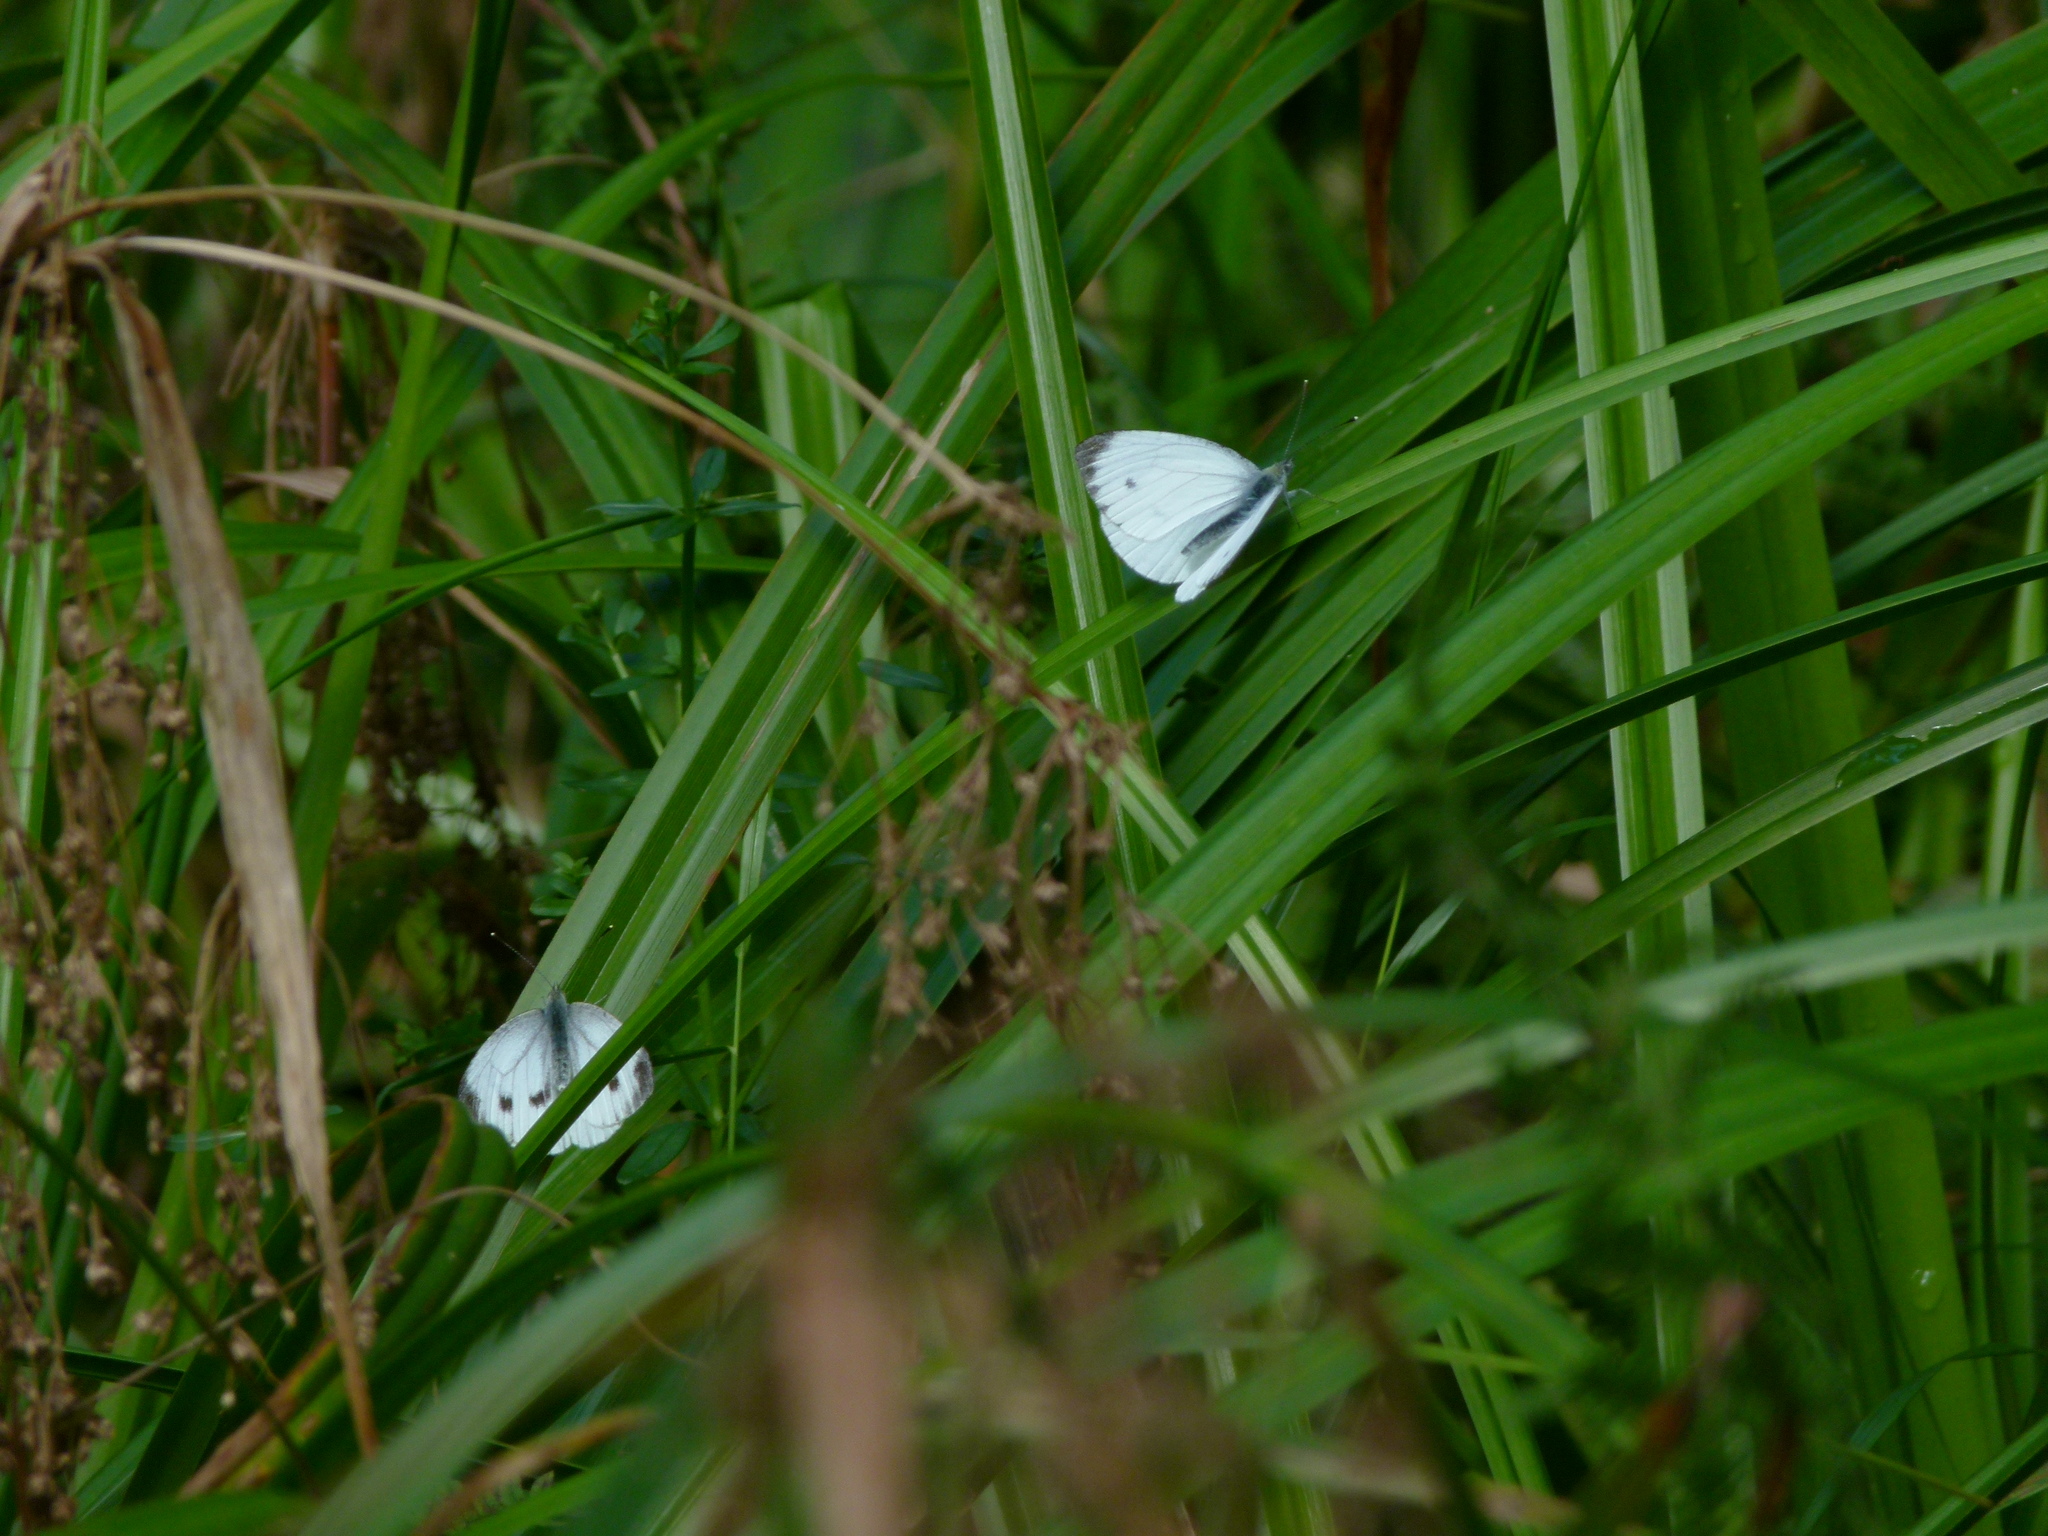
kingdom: Animalia
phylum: Arthropoda
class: Insecta
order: Lepidoptera
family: Pieridae
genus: Pieris
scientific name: Pieris napi
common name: Green-veined white
